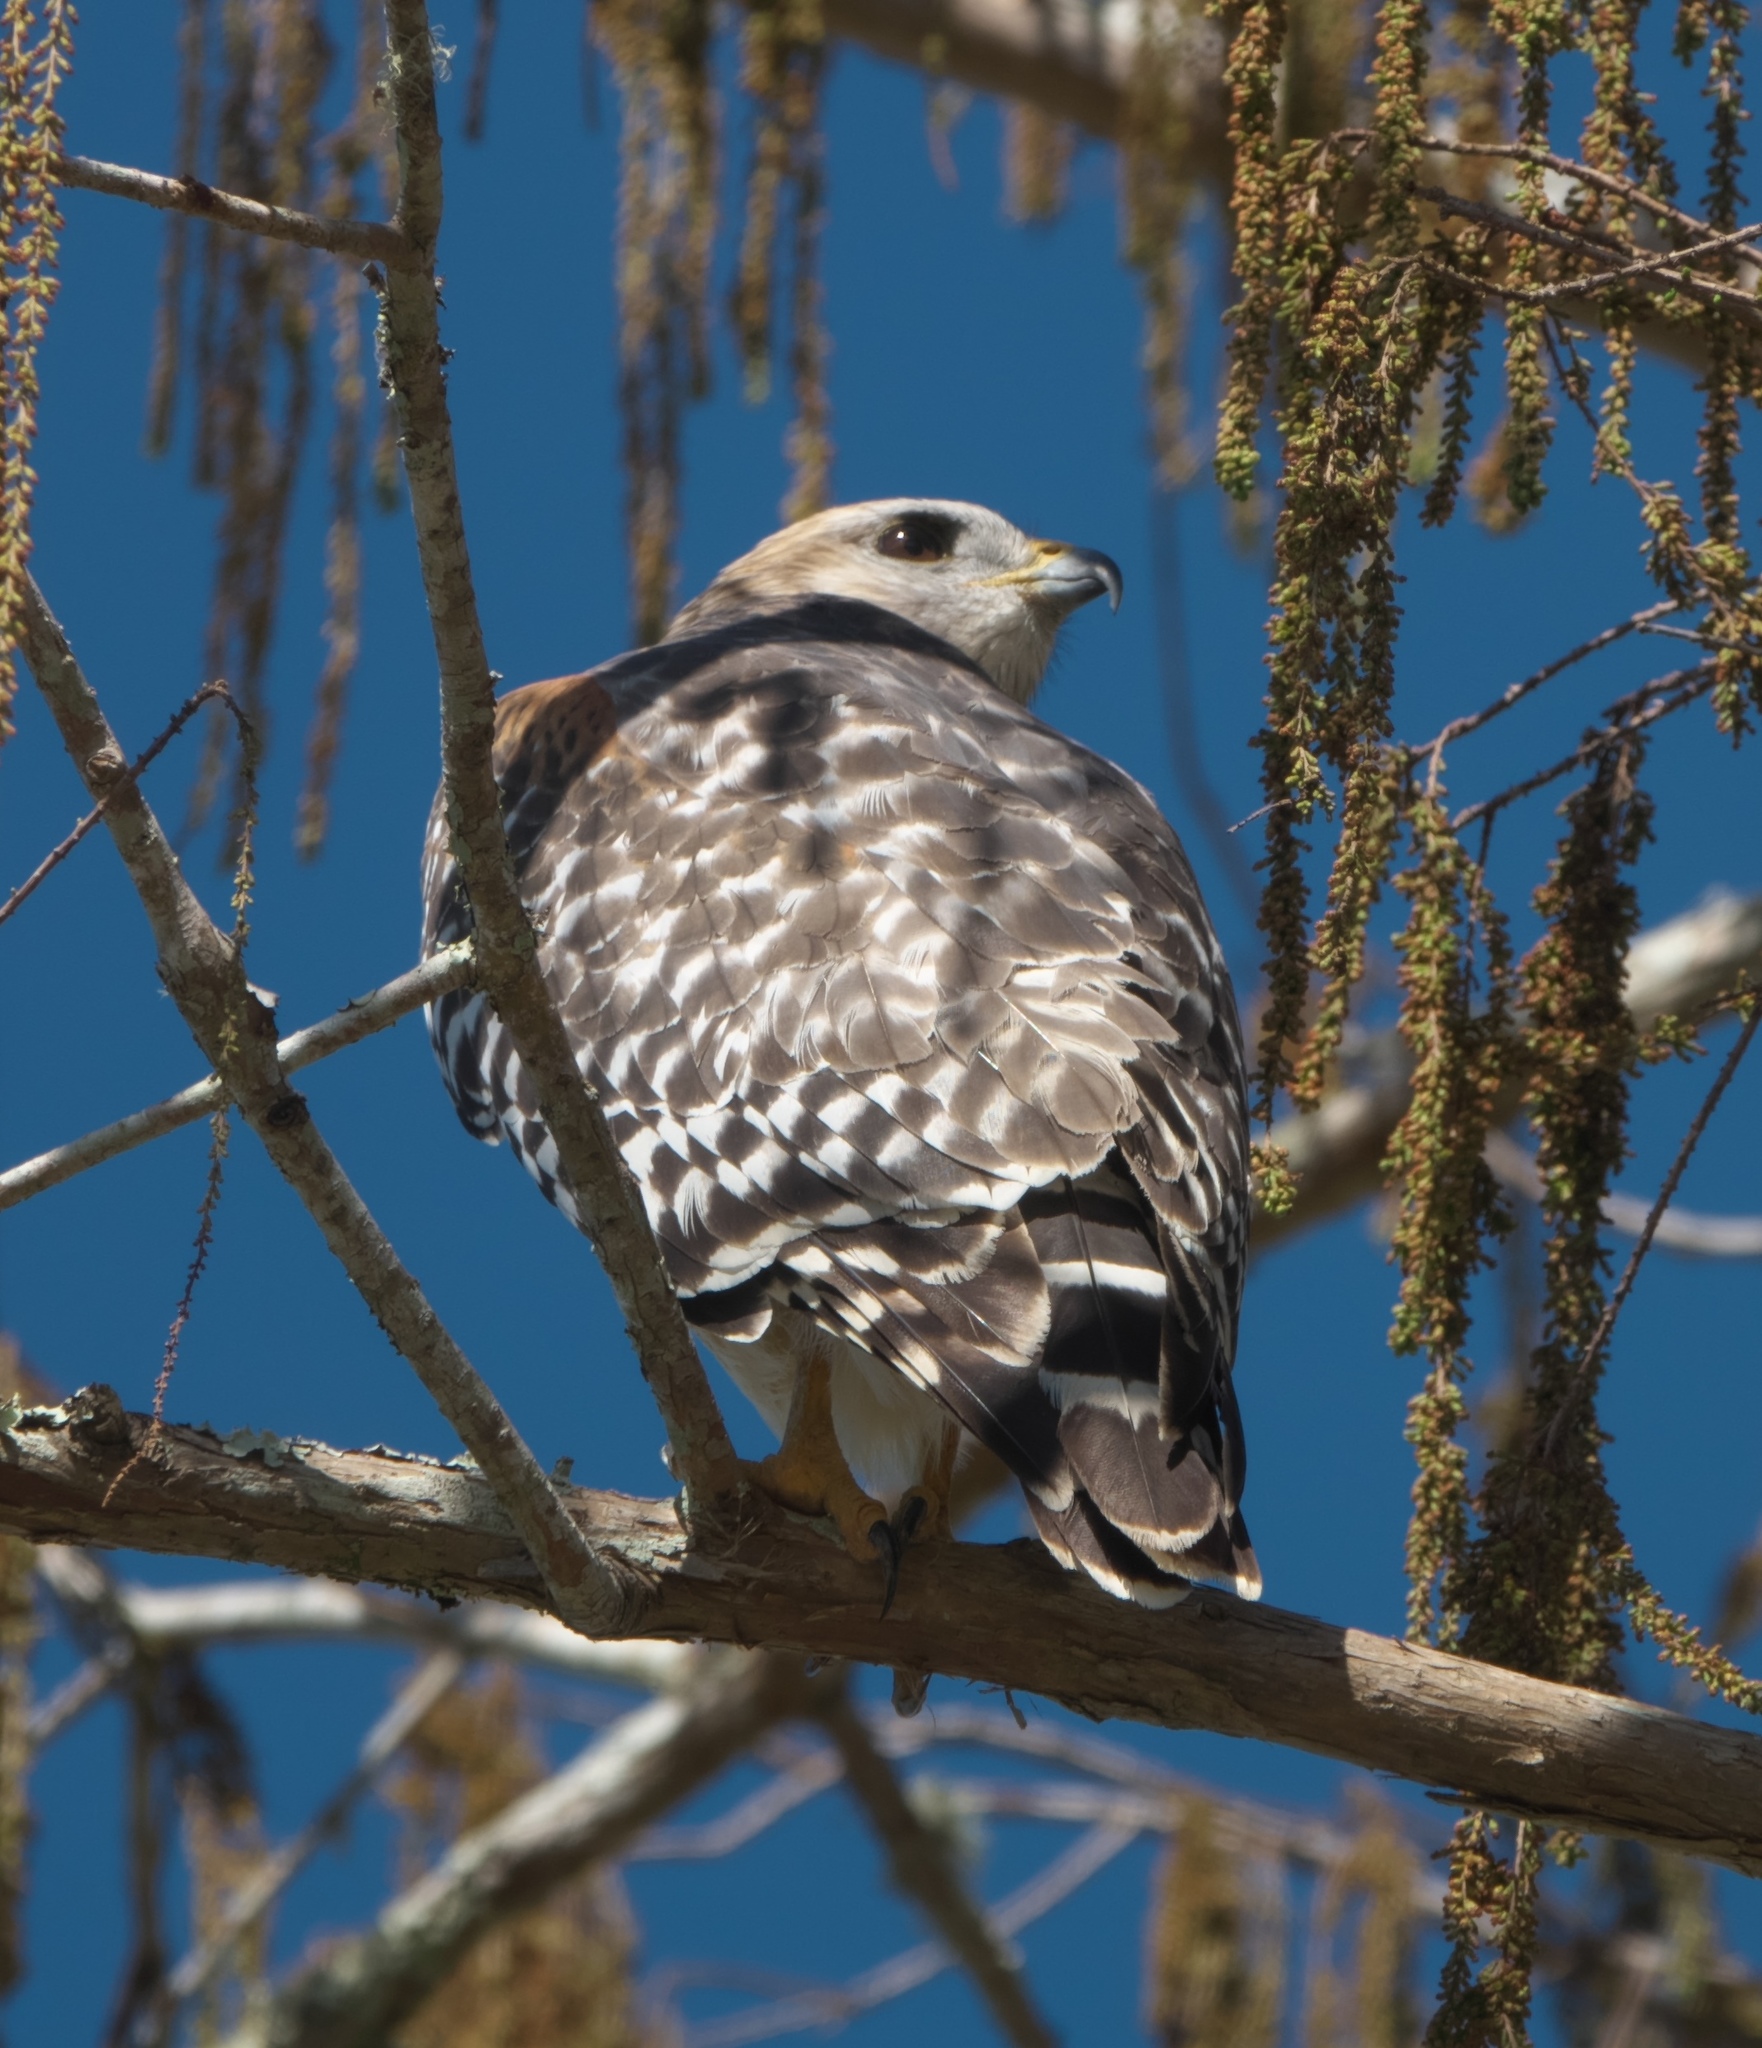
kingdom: Animalia
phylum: Chordata
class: Aves
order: Accipitriformes
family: Accipitridae
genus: Buteo
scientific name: Buteo lineatus
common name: Red-shouldered hawk
